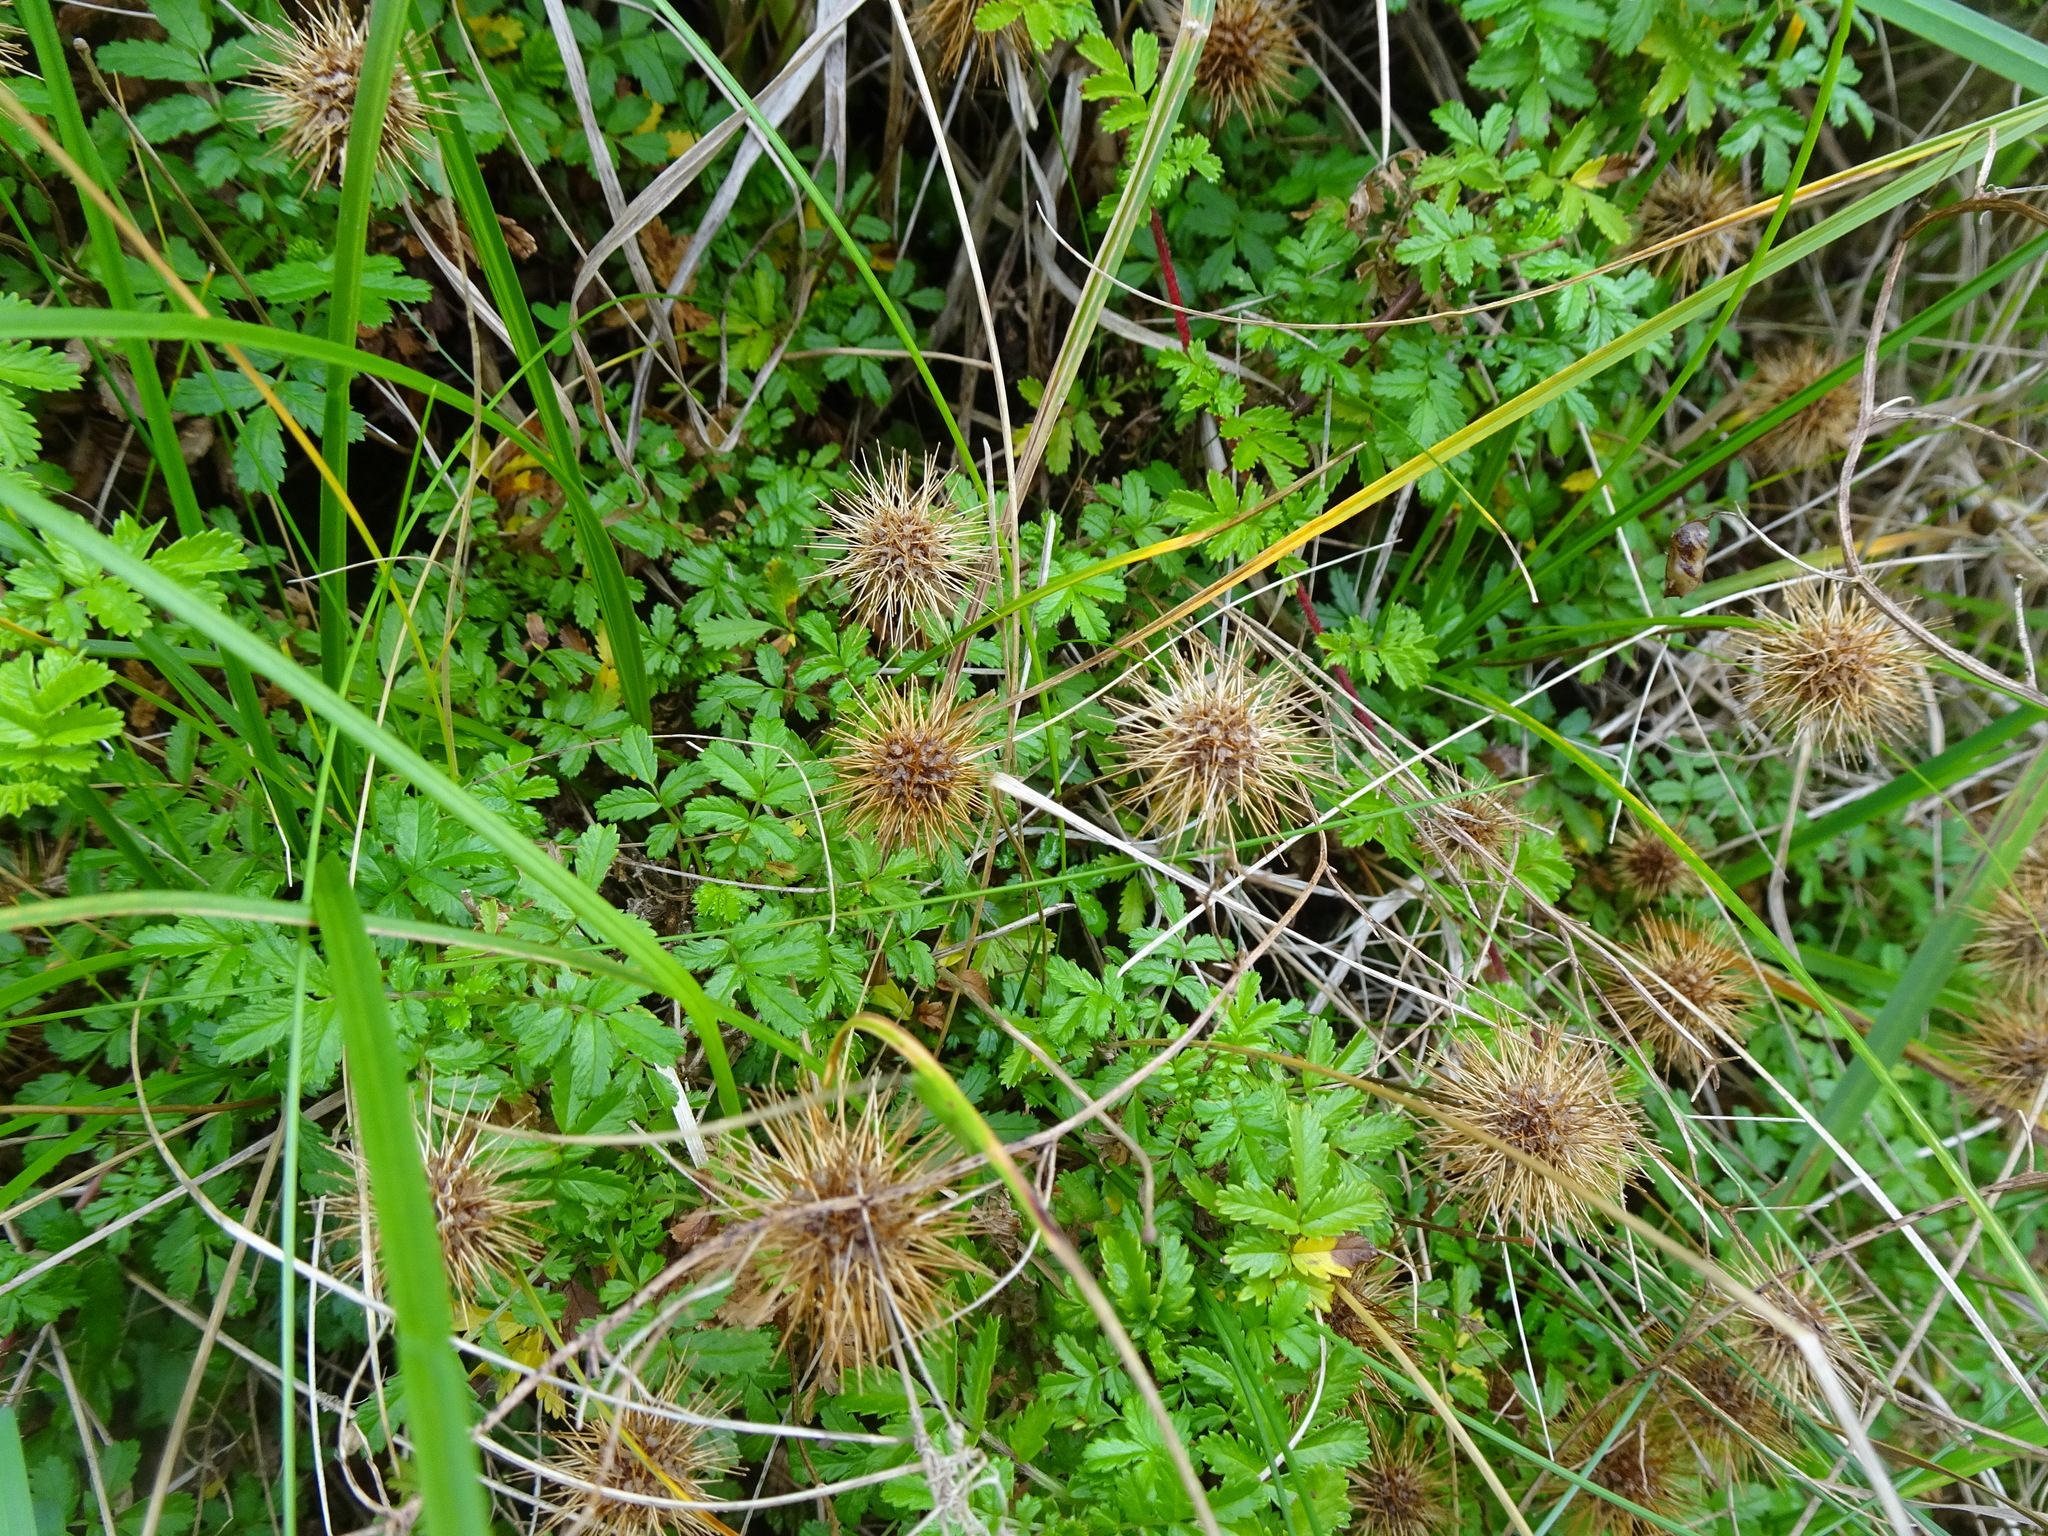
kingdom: Plantae
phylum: Tracheophyta
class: Magnoliopsida
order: Rosales
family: Rosaceae
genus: Acaena
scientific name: Acaena novae-zelandiae
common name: Pirri-pirri-bur
